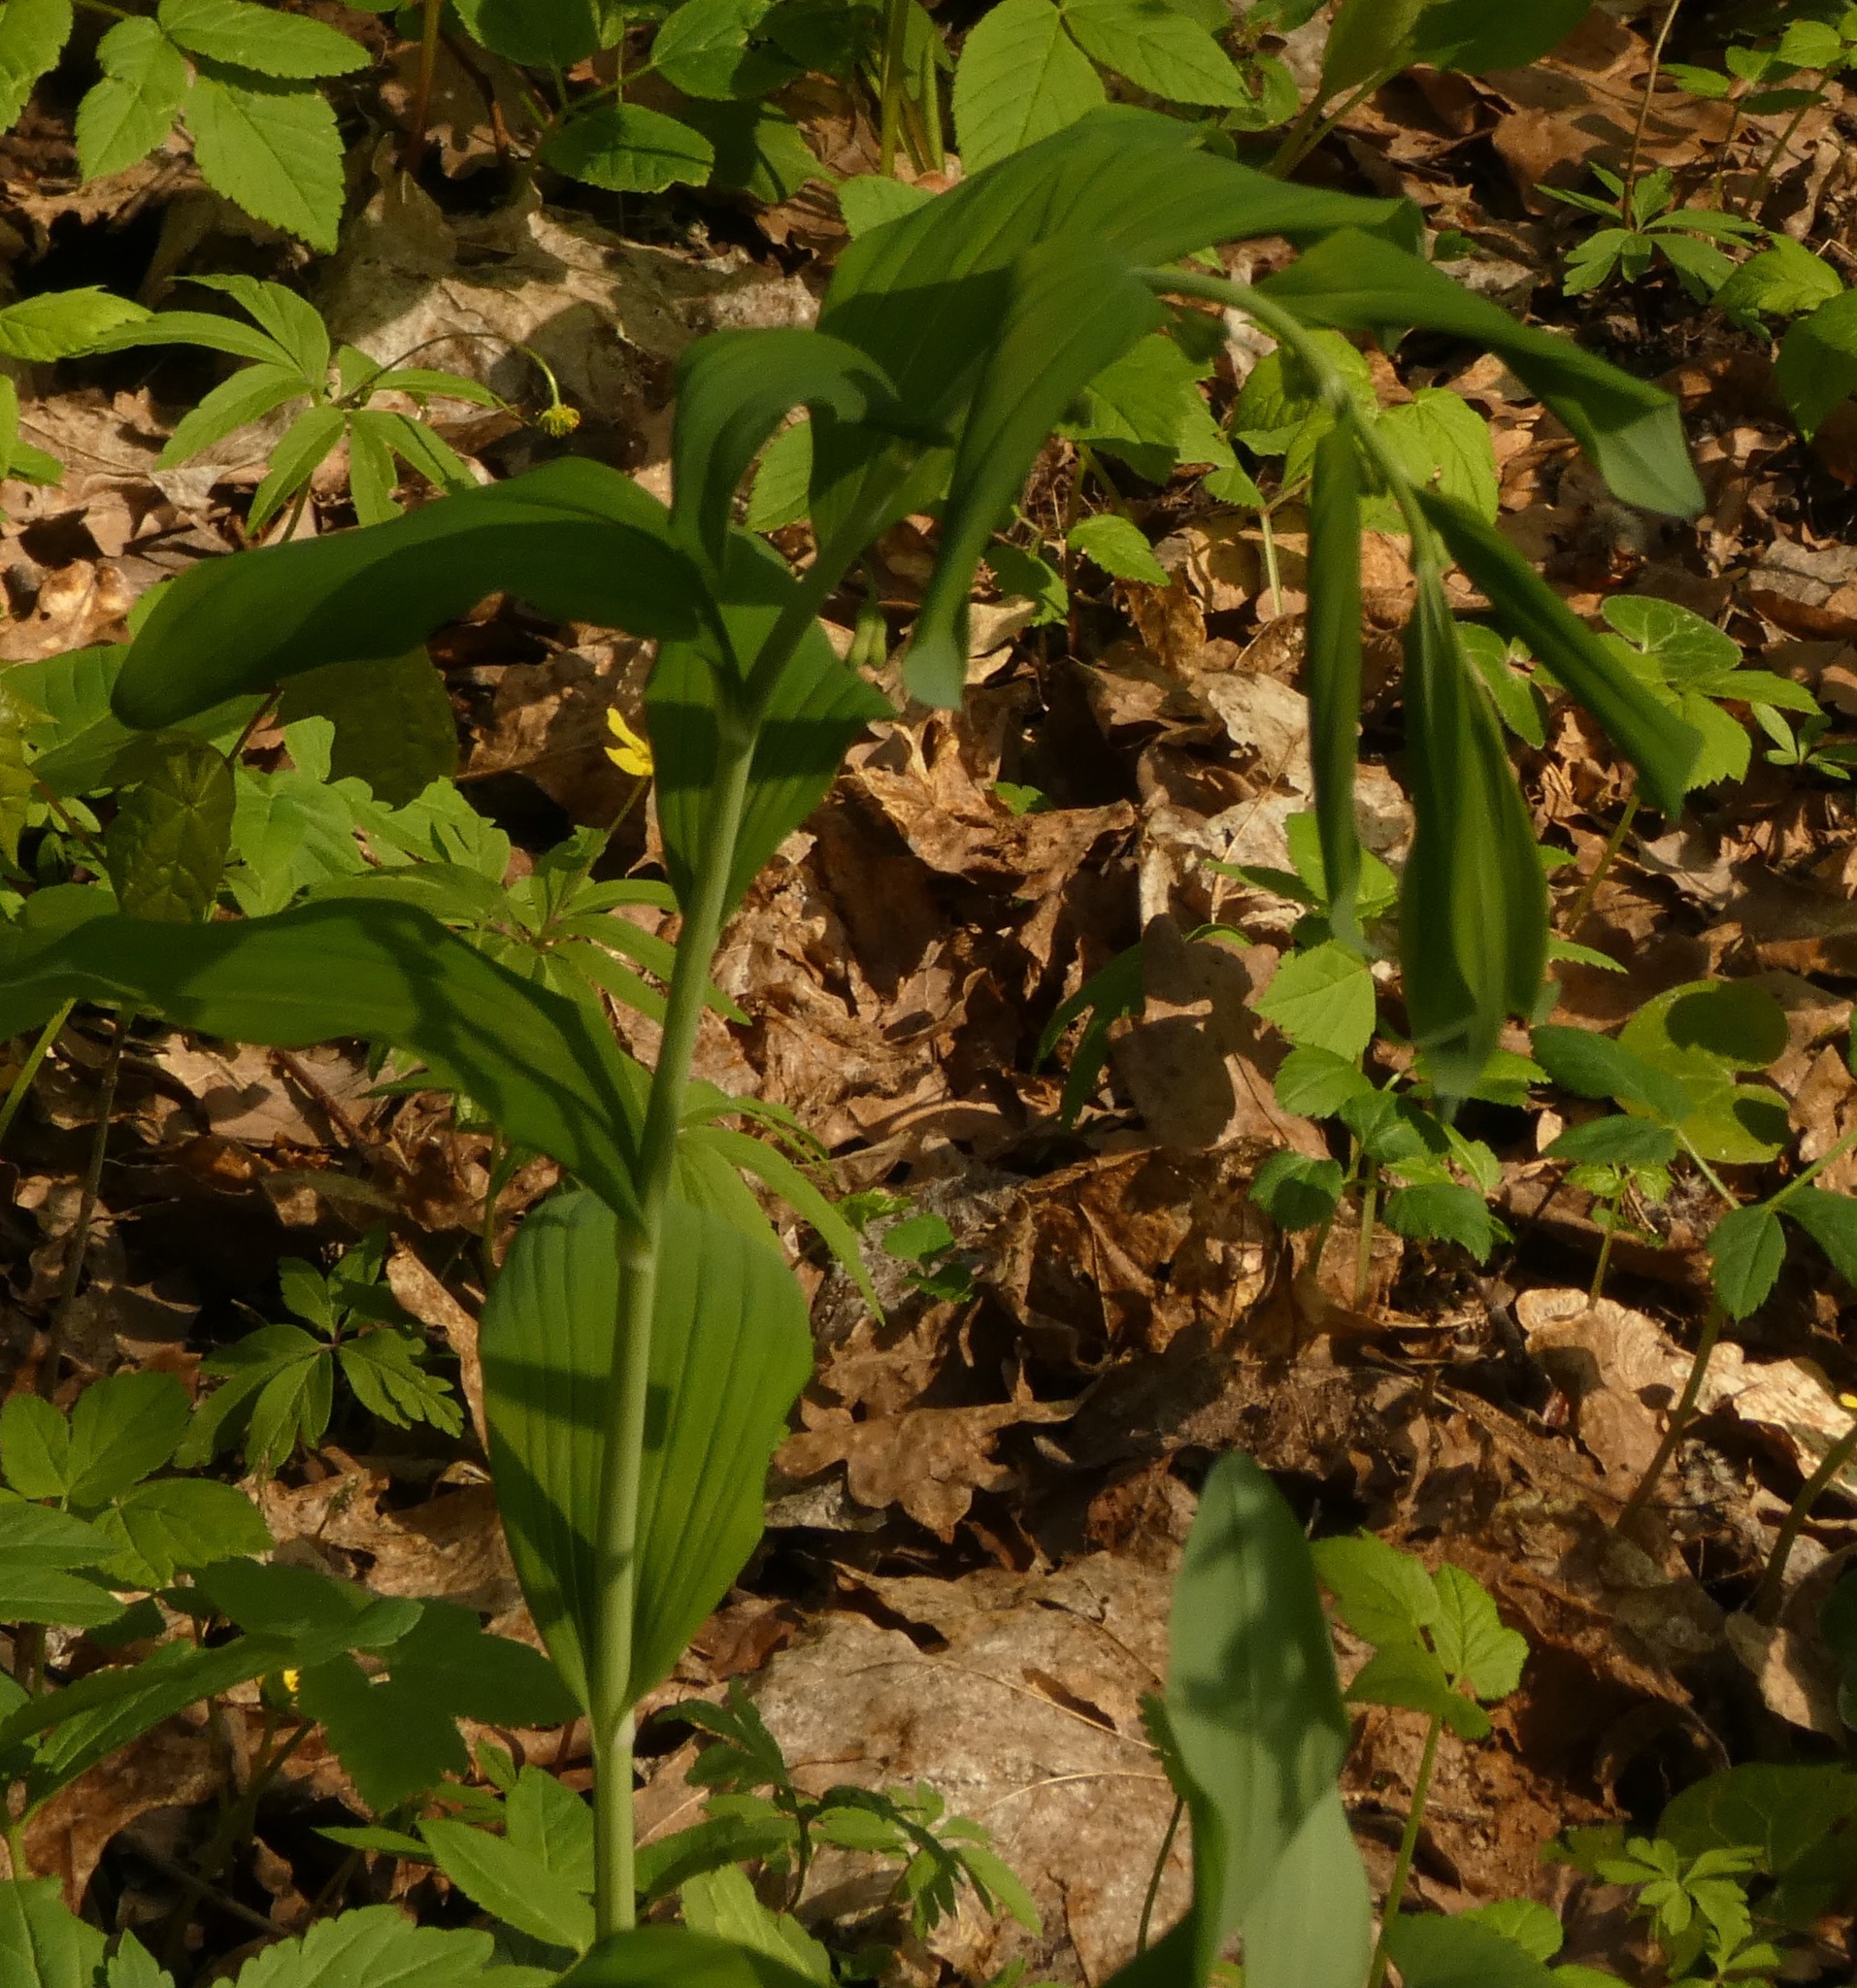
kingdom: Plantae
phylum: Tracheophyta
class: Magnoliopsida
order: Fabales
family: Fabaceae
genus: Lathyrus
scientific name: Lathyrus vernus
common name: Spring pea
